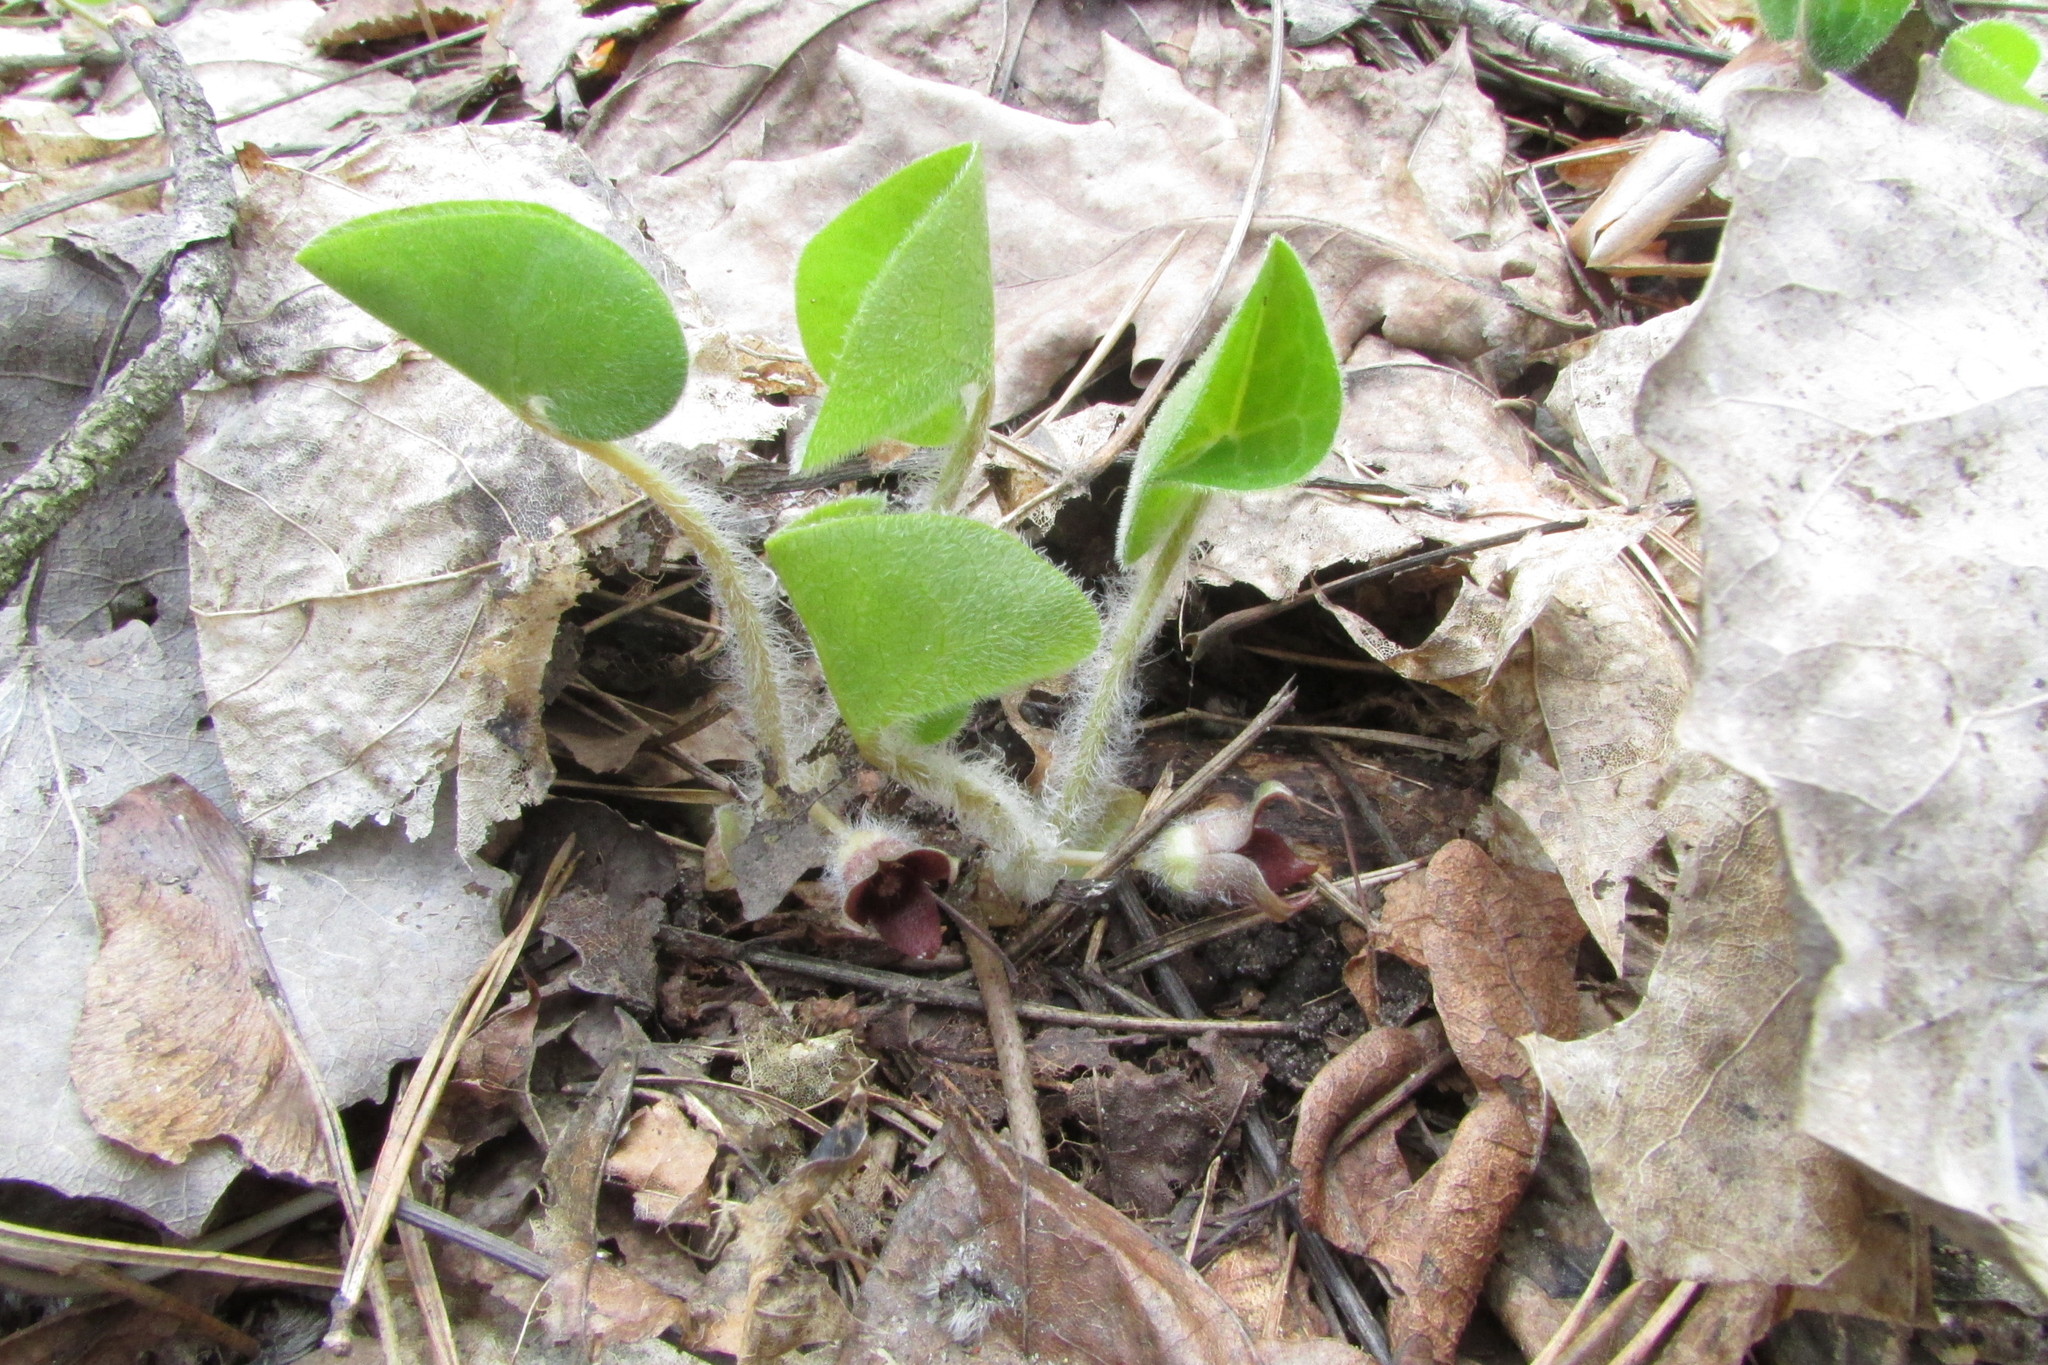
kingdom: Plantae
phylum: Tracheophyta
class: Magnoliopsida
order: Piperales
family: Aristolochiaceae
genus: Asarum
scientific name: Asarum europaeum
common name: Asarabacca
